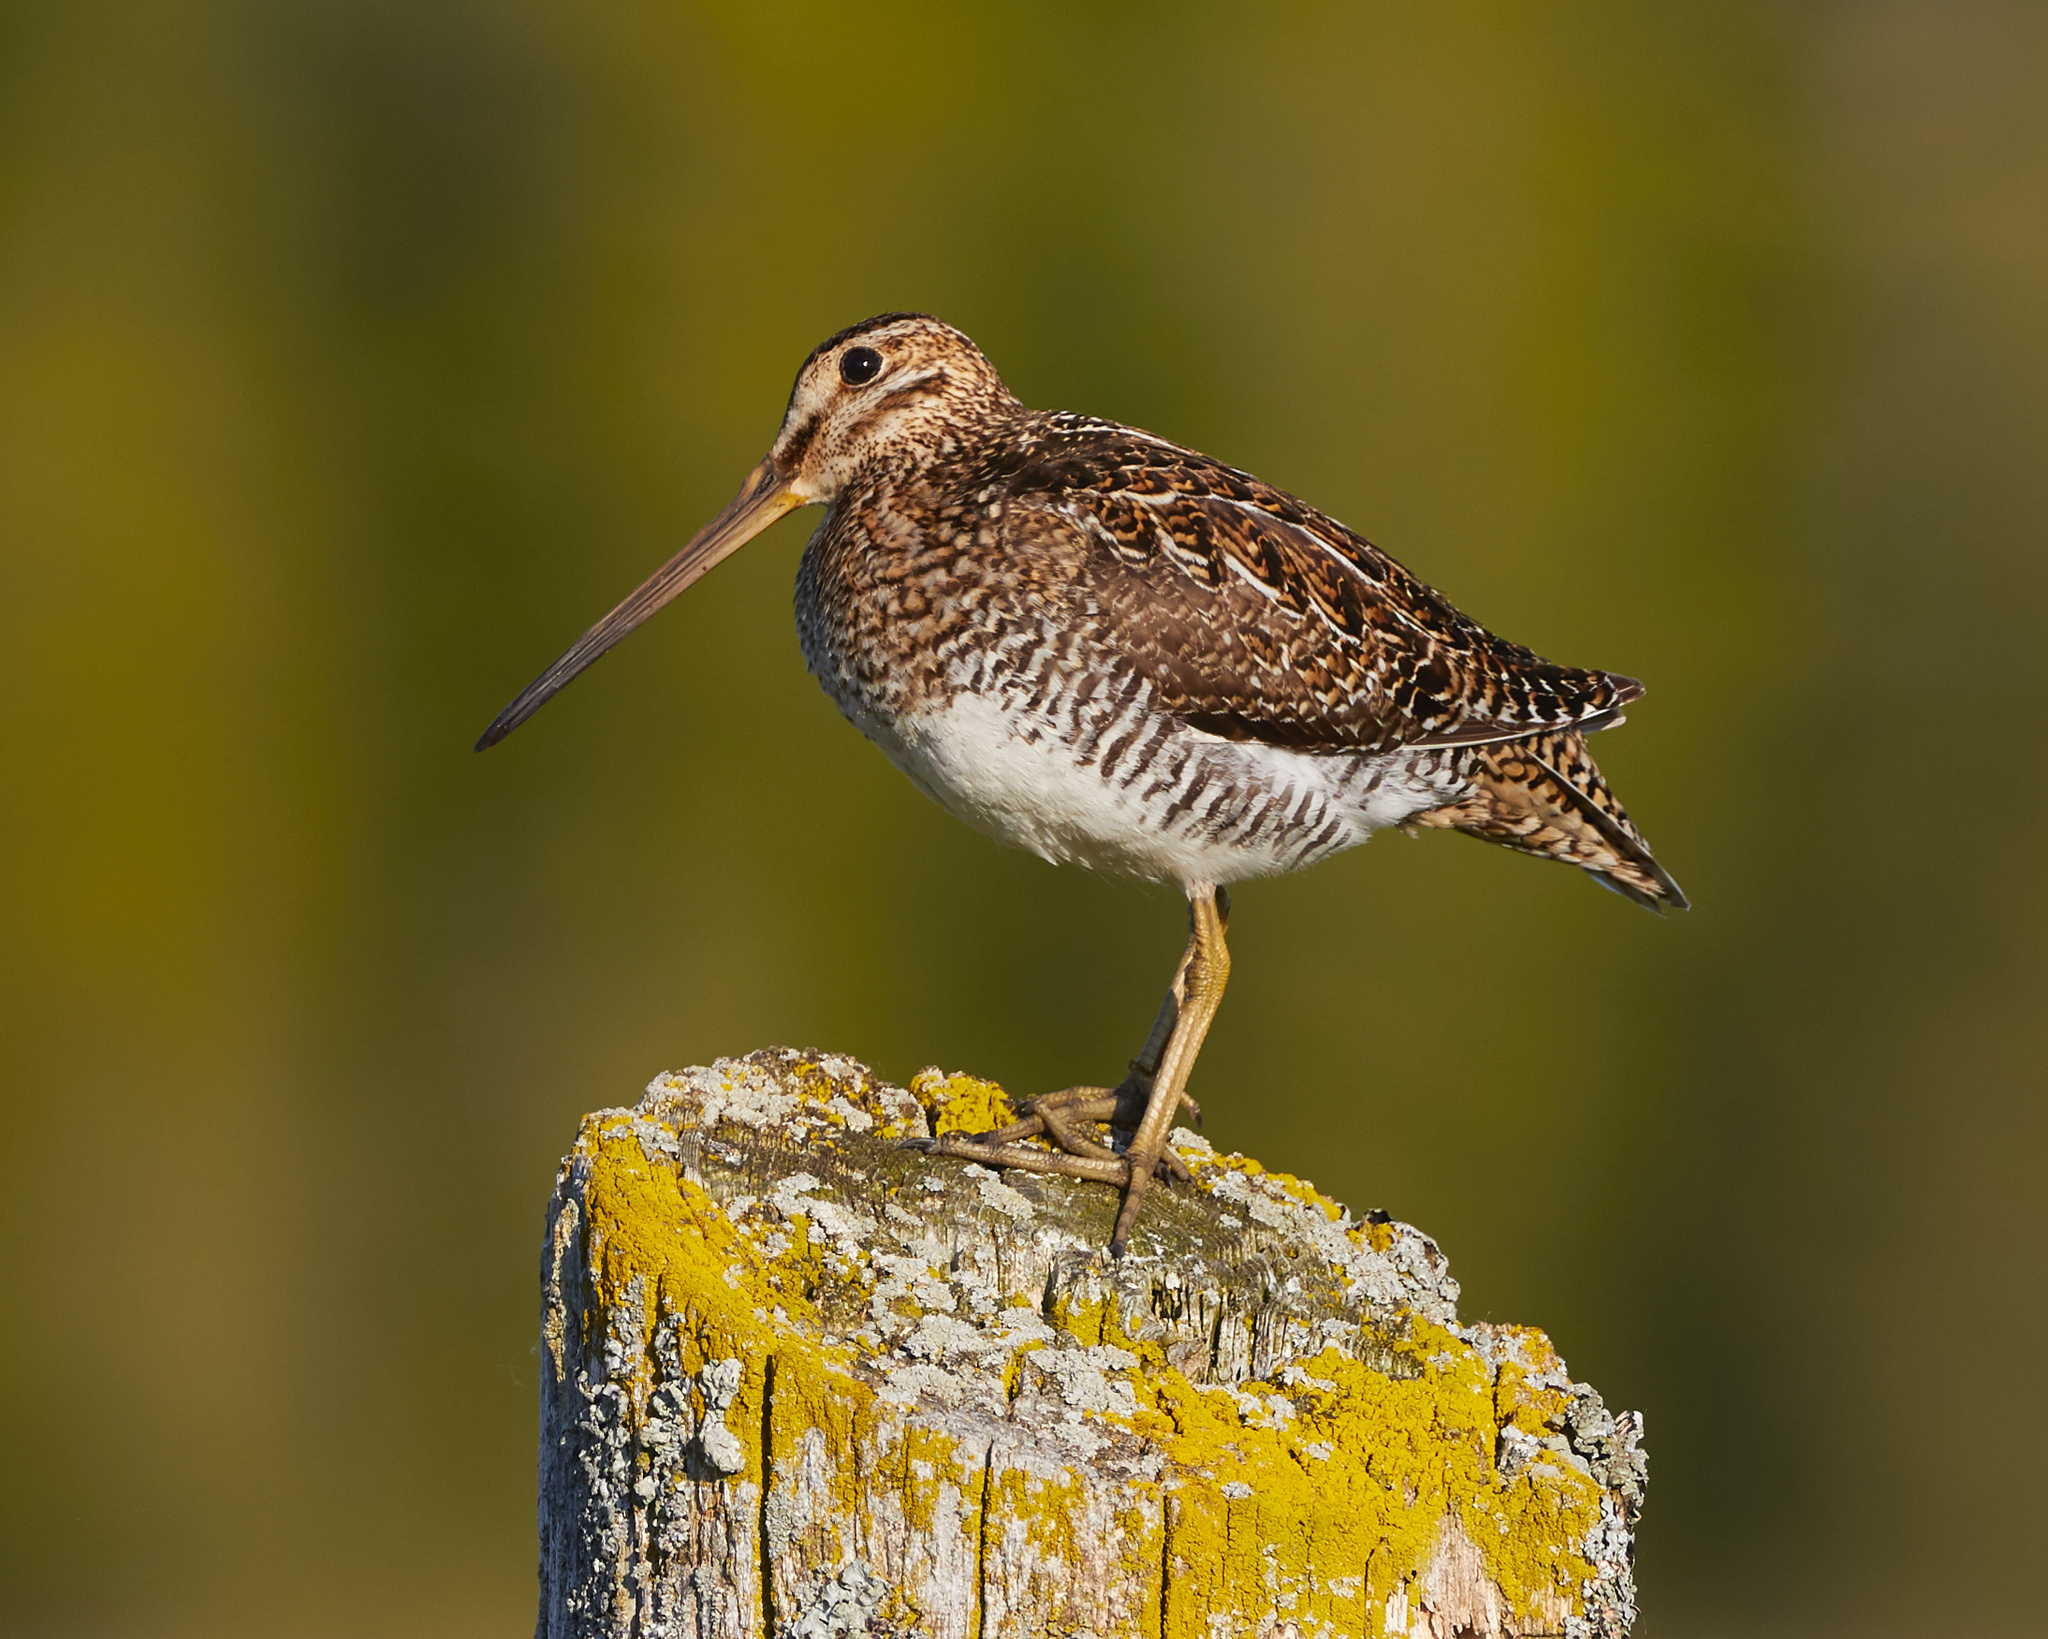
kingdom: Animalia
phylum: Chordata
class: Aves
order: Charadriiformes
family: Scolopacidae
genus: Gallinago
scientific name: Gallinago delicata
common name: Wilson's snipe
